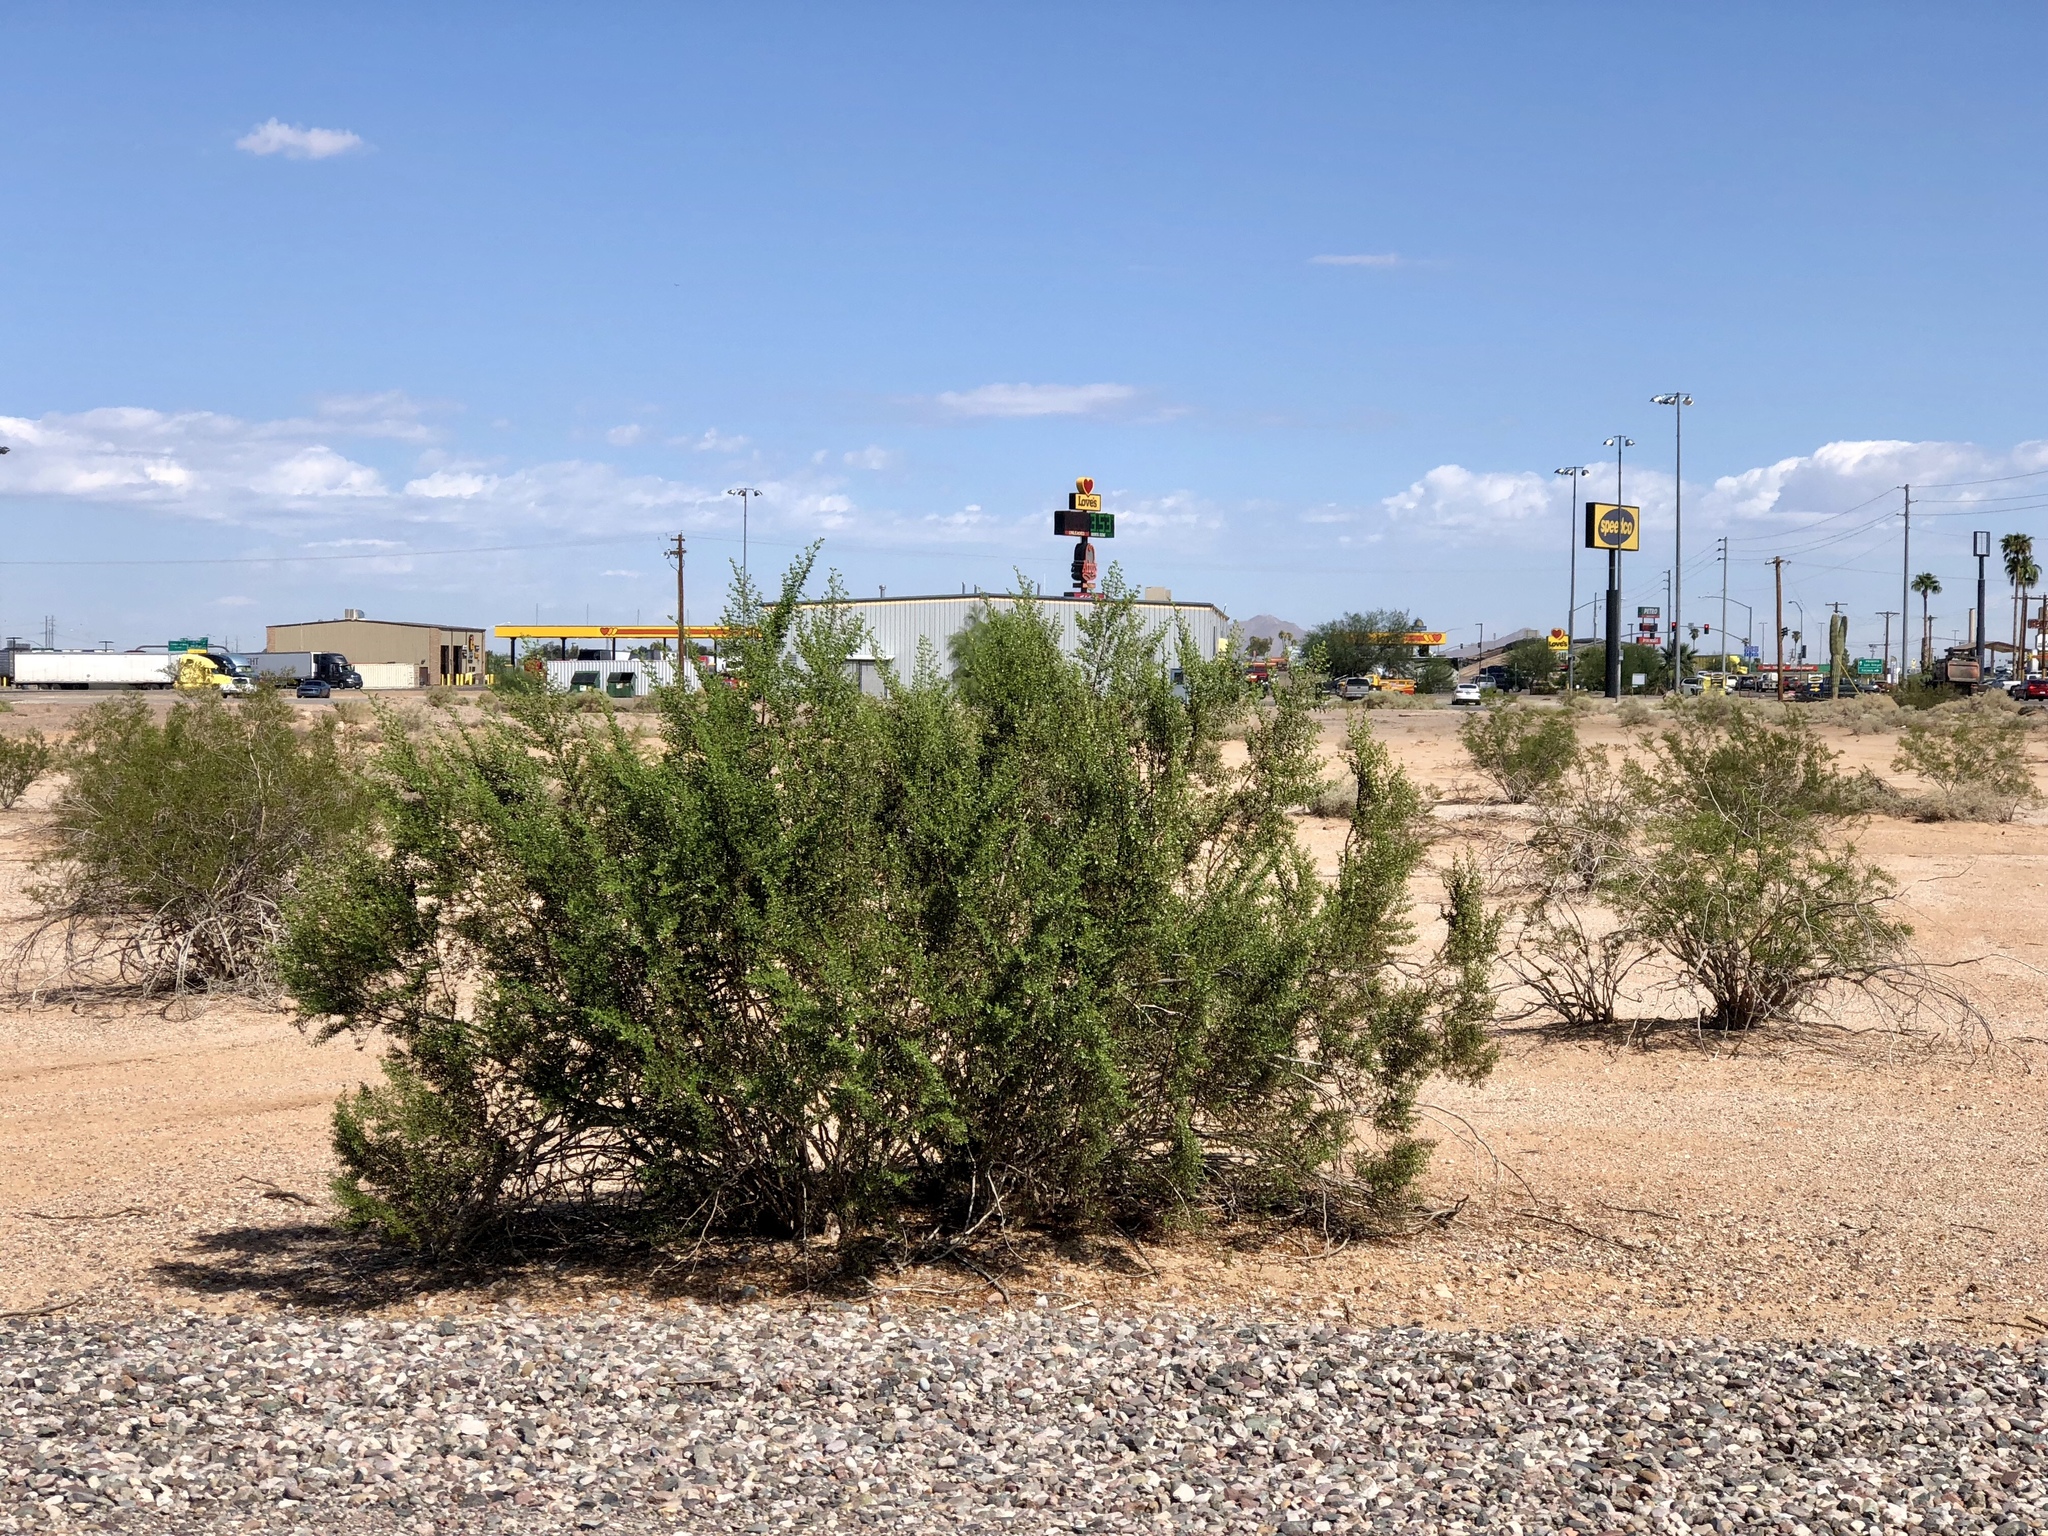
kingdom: Plantae
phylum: Tracheophyta
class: Magnoliopsida
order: Zygophyllales
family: Zygophyllaceae
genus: Larrea
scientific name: Larrea tridentata
